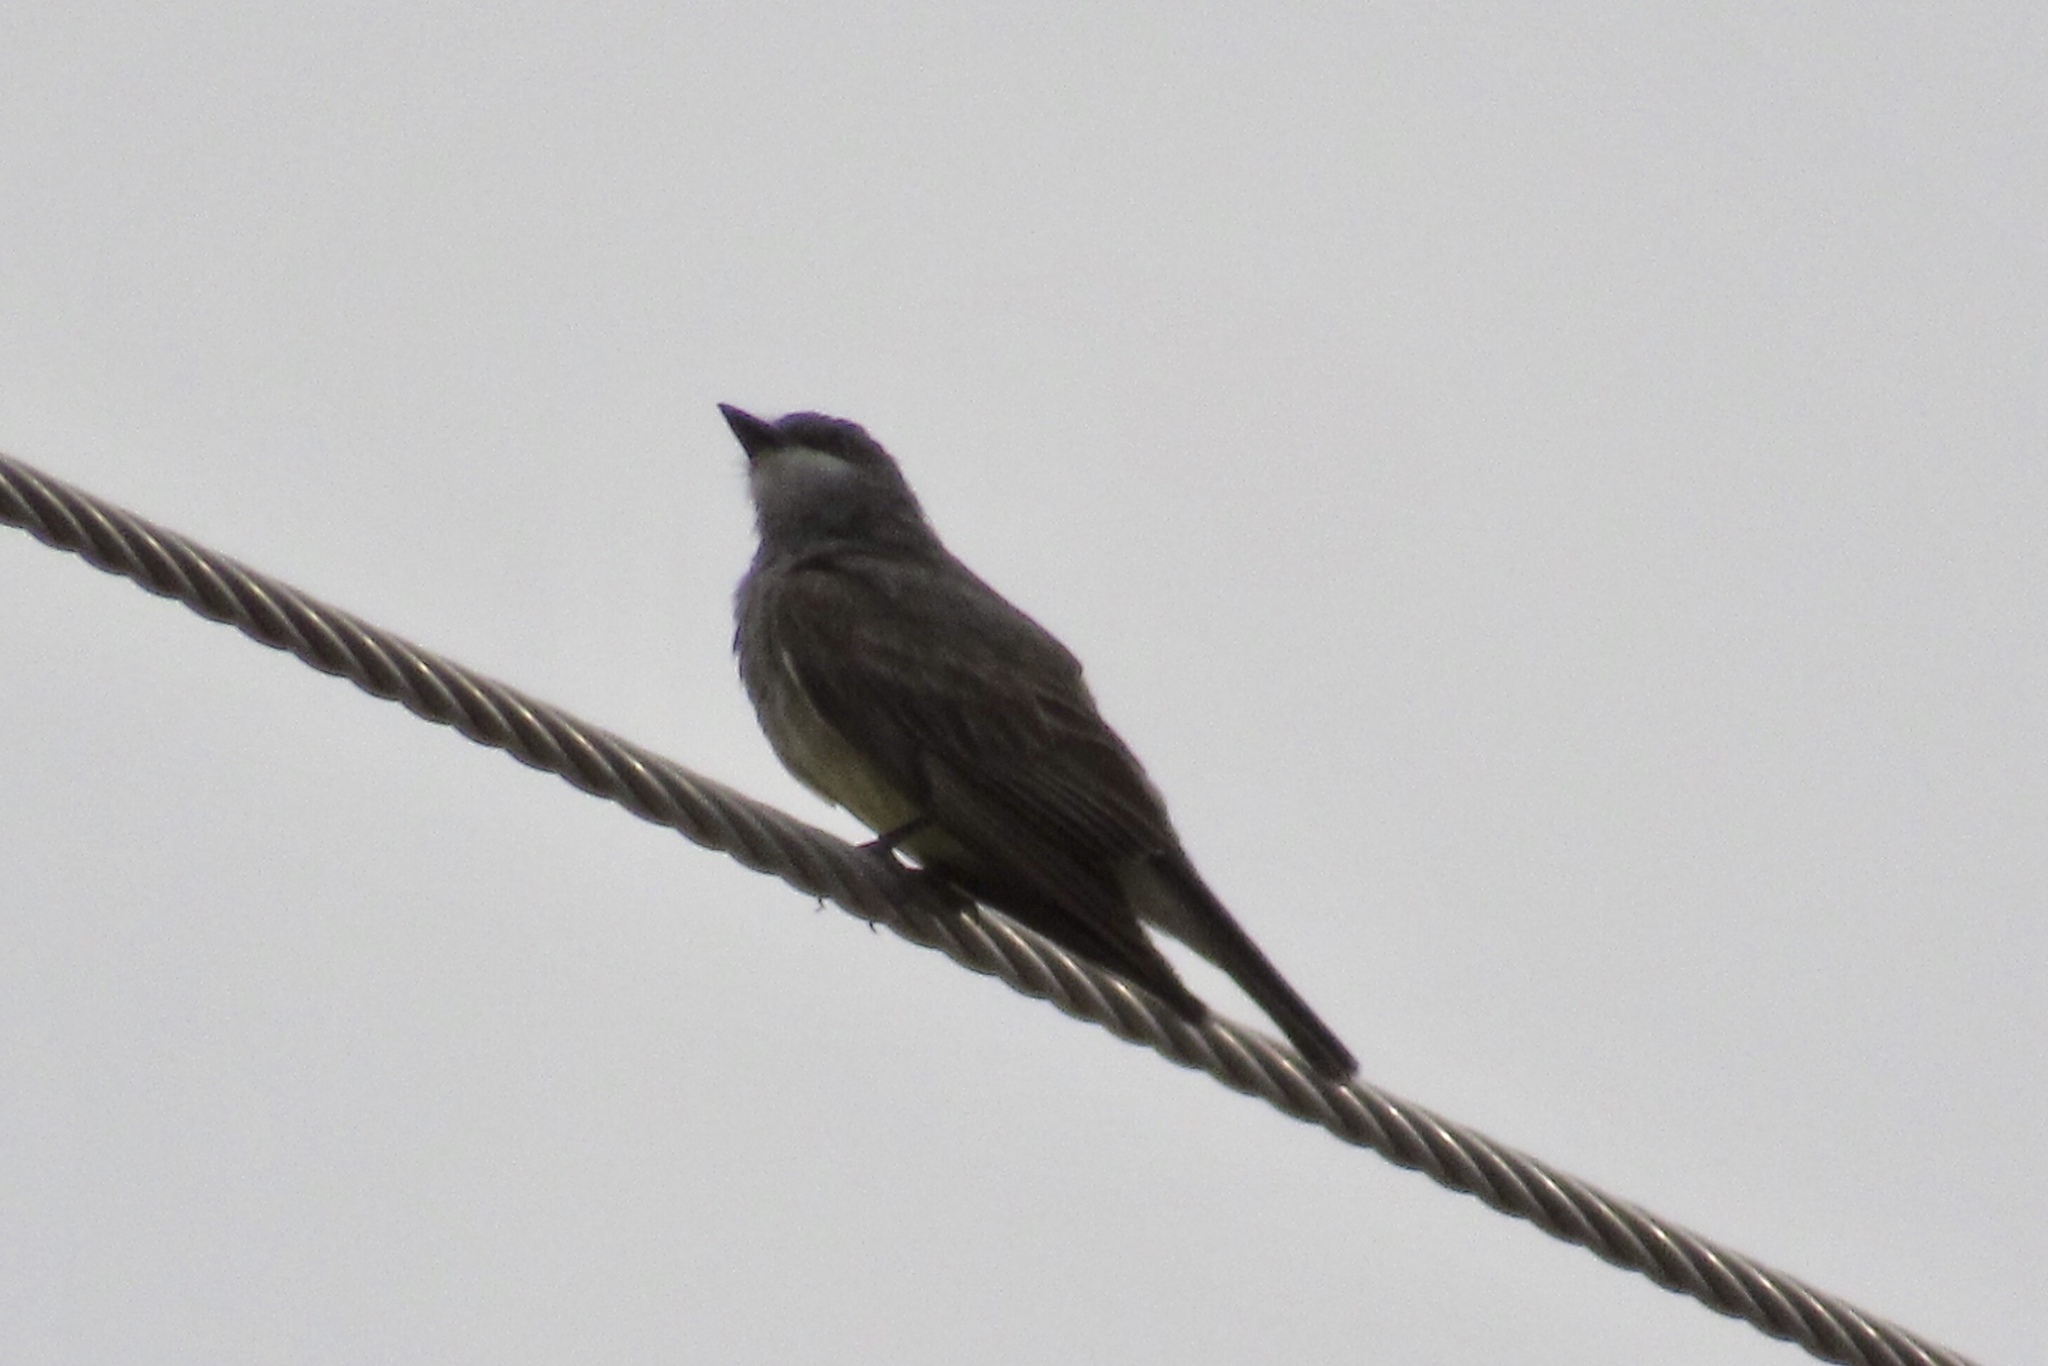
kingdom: Animalia
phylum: Chordata
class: Aves
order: Passeriformes
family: Tyrannidae
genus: Tyrannus
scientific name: Tyrannus vociferans
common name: Cassin's kingbird
